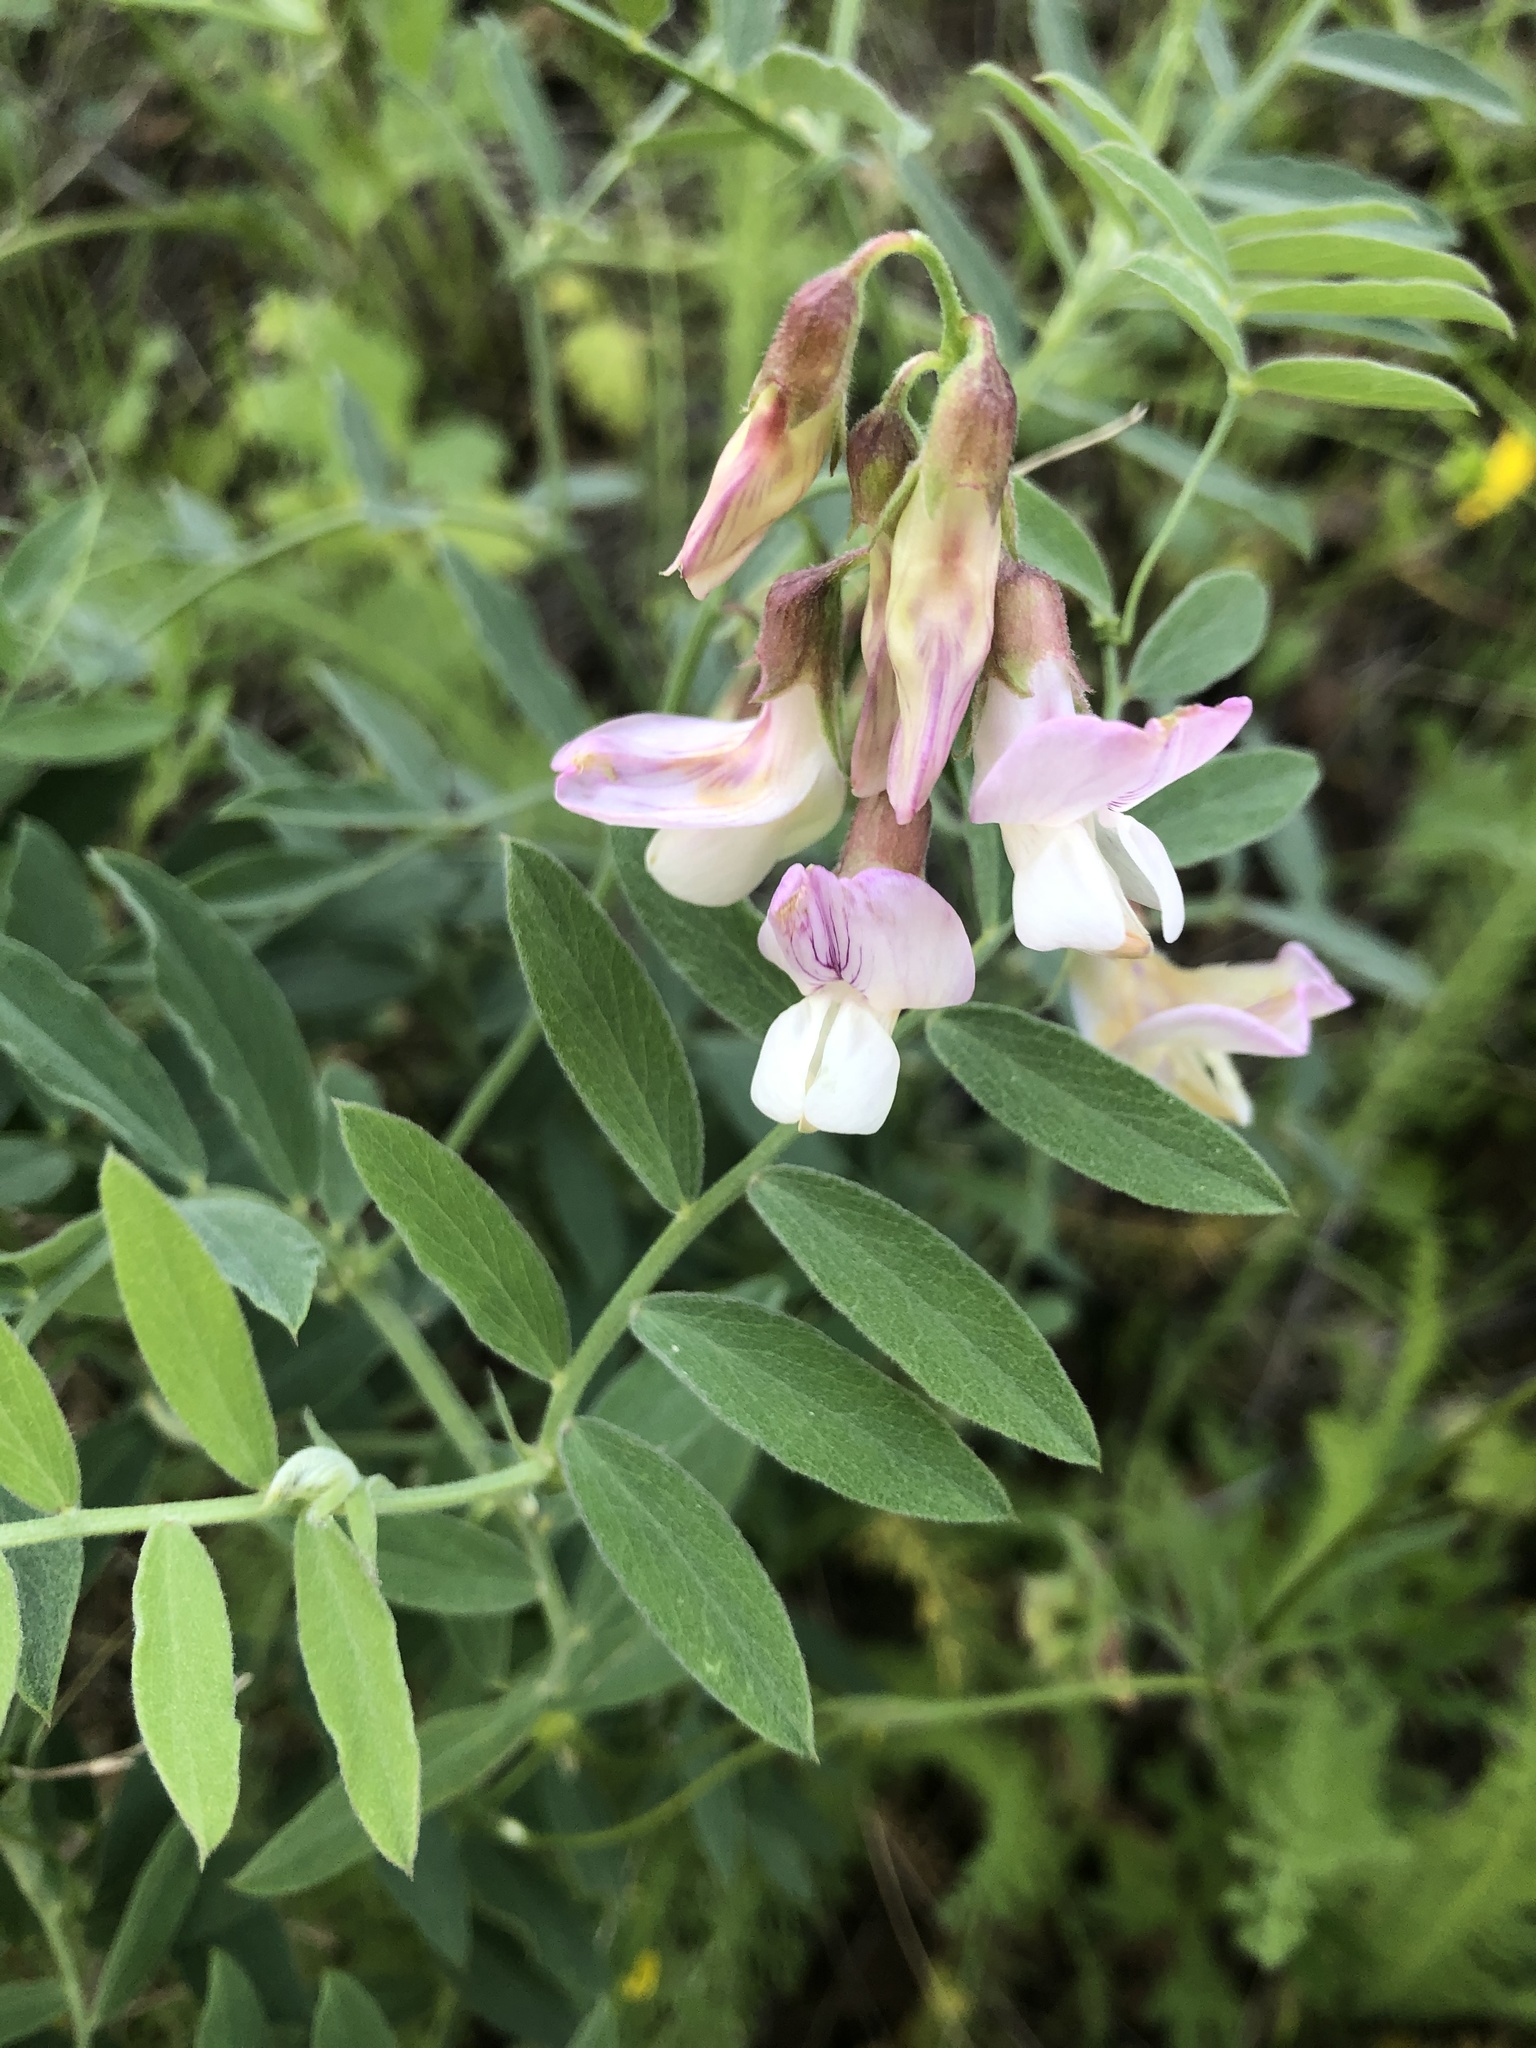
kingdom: Plantae
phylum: Tracheophyta
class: Magnoliopsida
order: Fabales
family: Fabaceae
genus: Lathyrus
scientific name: Lathyrus vestitus
